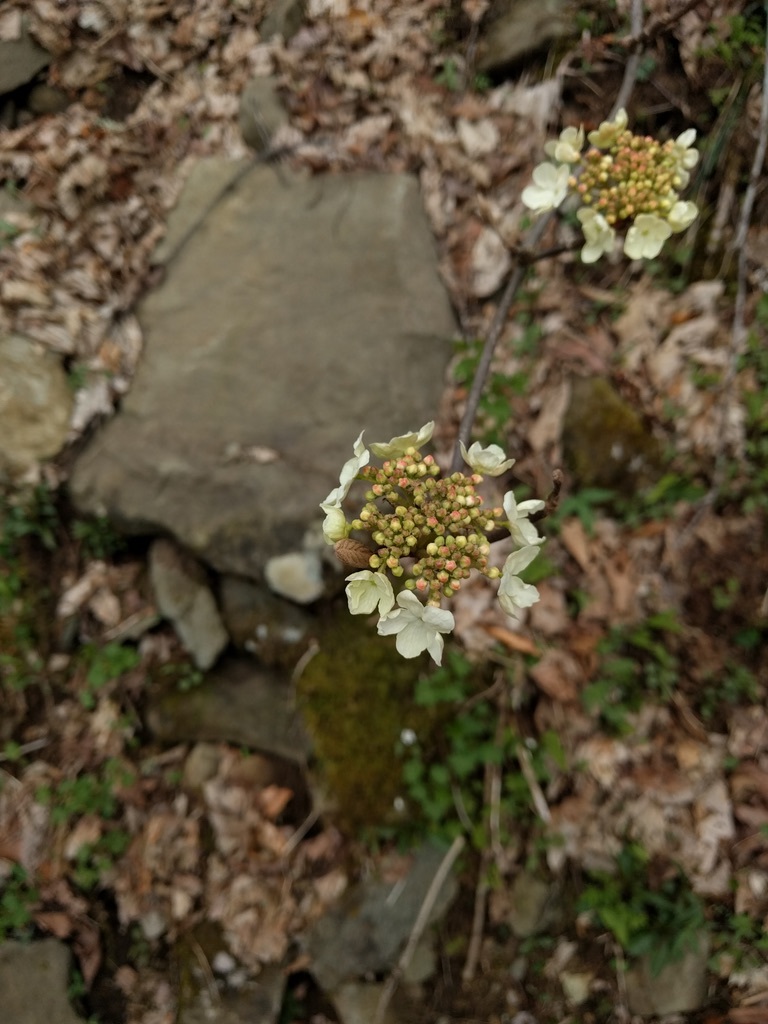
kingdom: Plantae
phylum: Tracheophyta
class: Magnoliopsida
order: Dipsacales
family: Viburnaceae
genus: Viburnum
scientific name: Viburnum lantanoides
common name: Hobblebush
